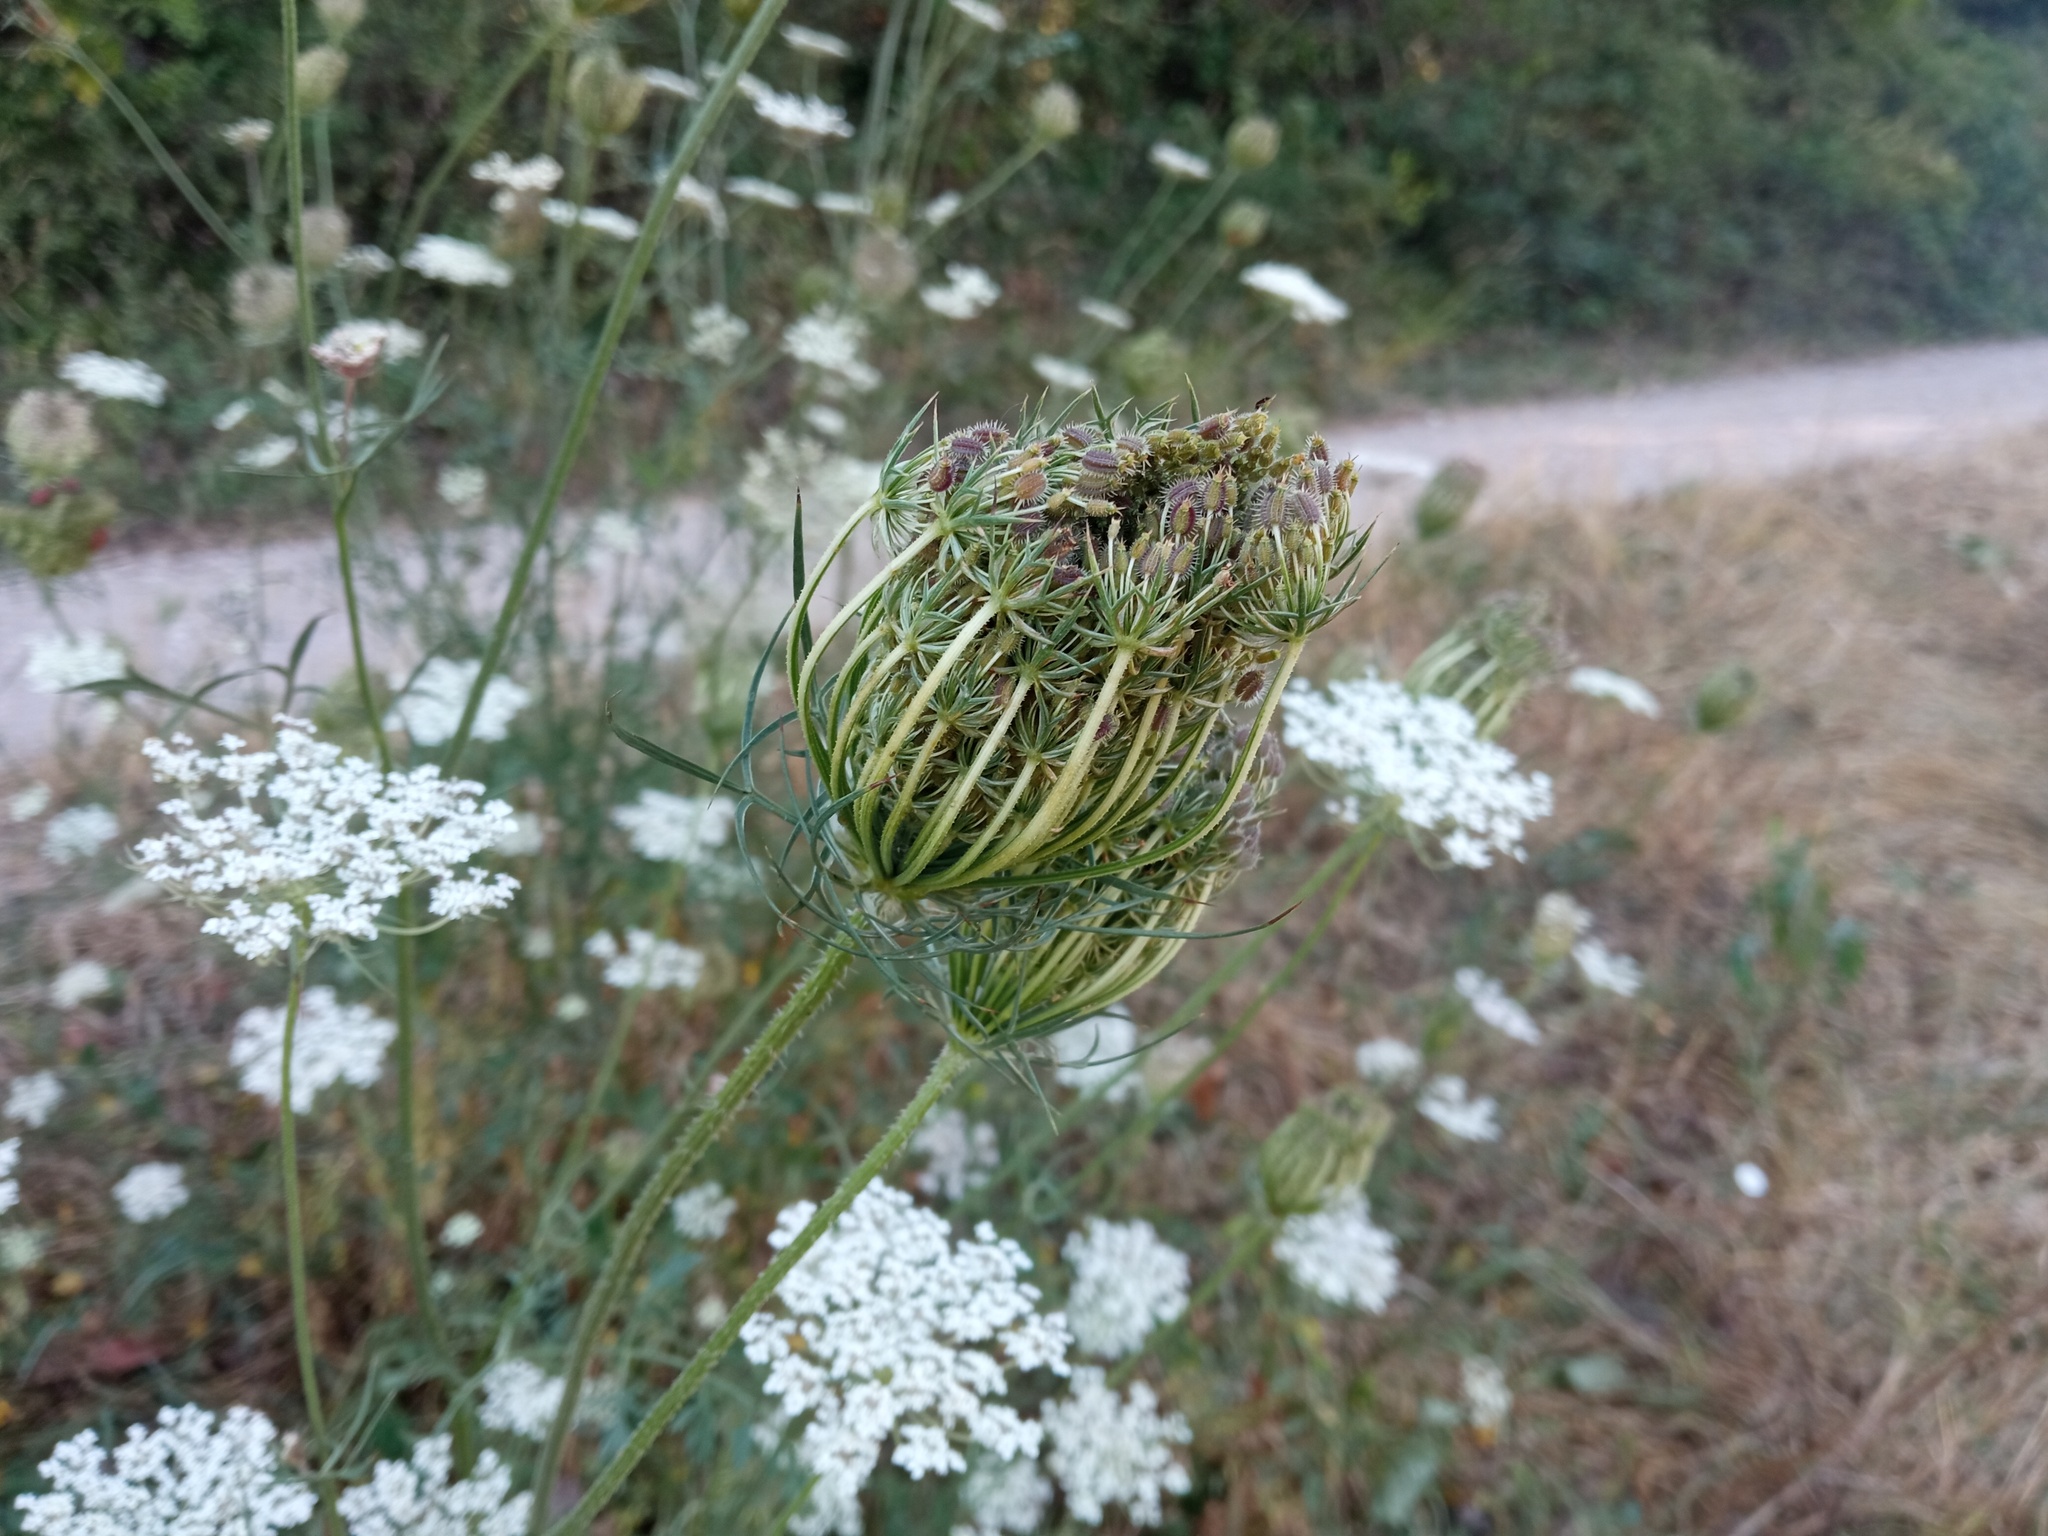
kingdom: Plantae
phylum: Tracheophyta
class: Magnoliopsida
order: Apiales
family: Apiaceae
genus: Daucus
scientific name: Daucus carota
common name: Wild carrot
